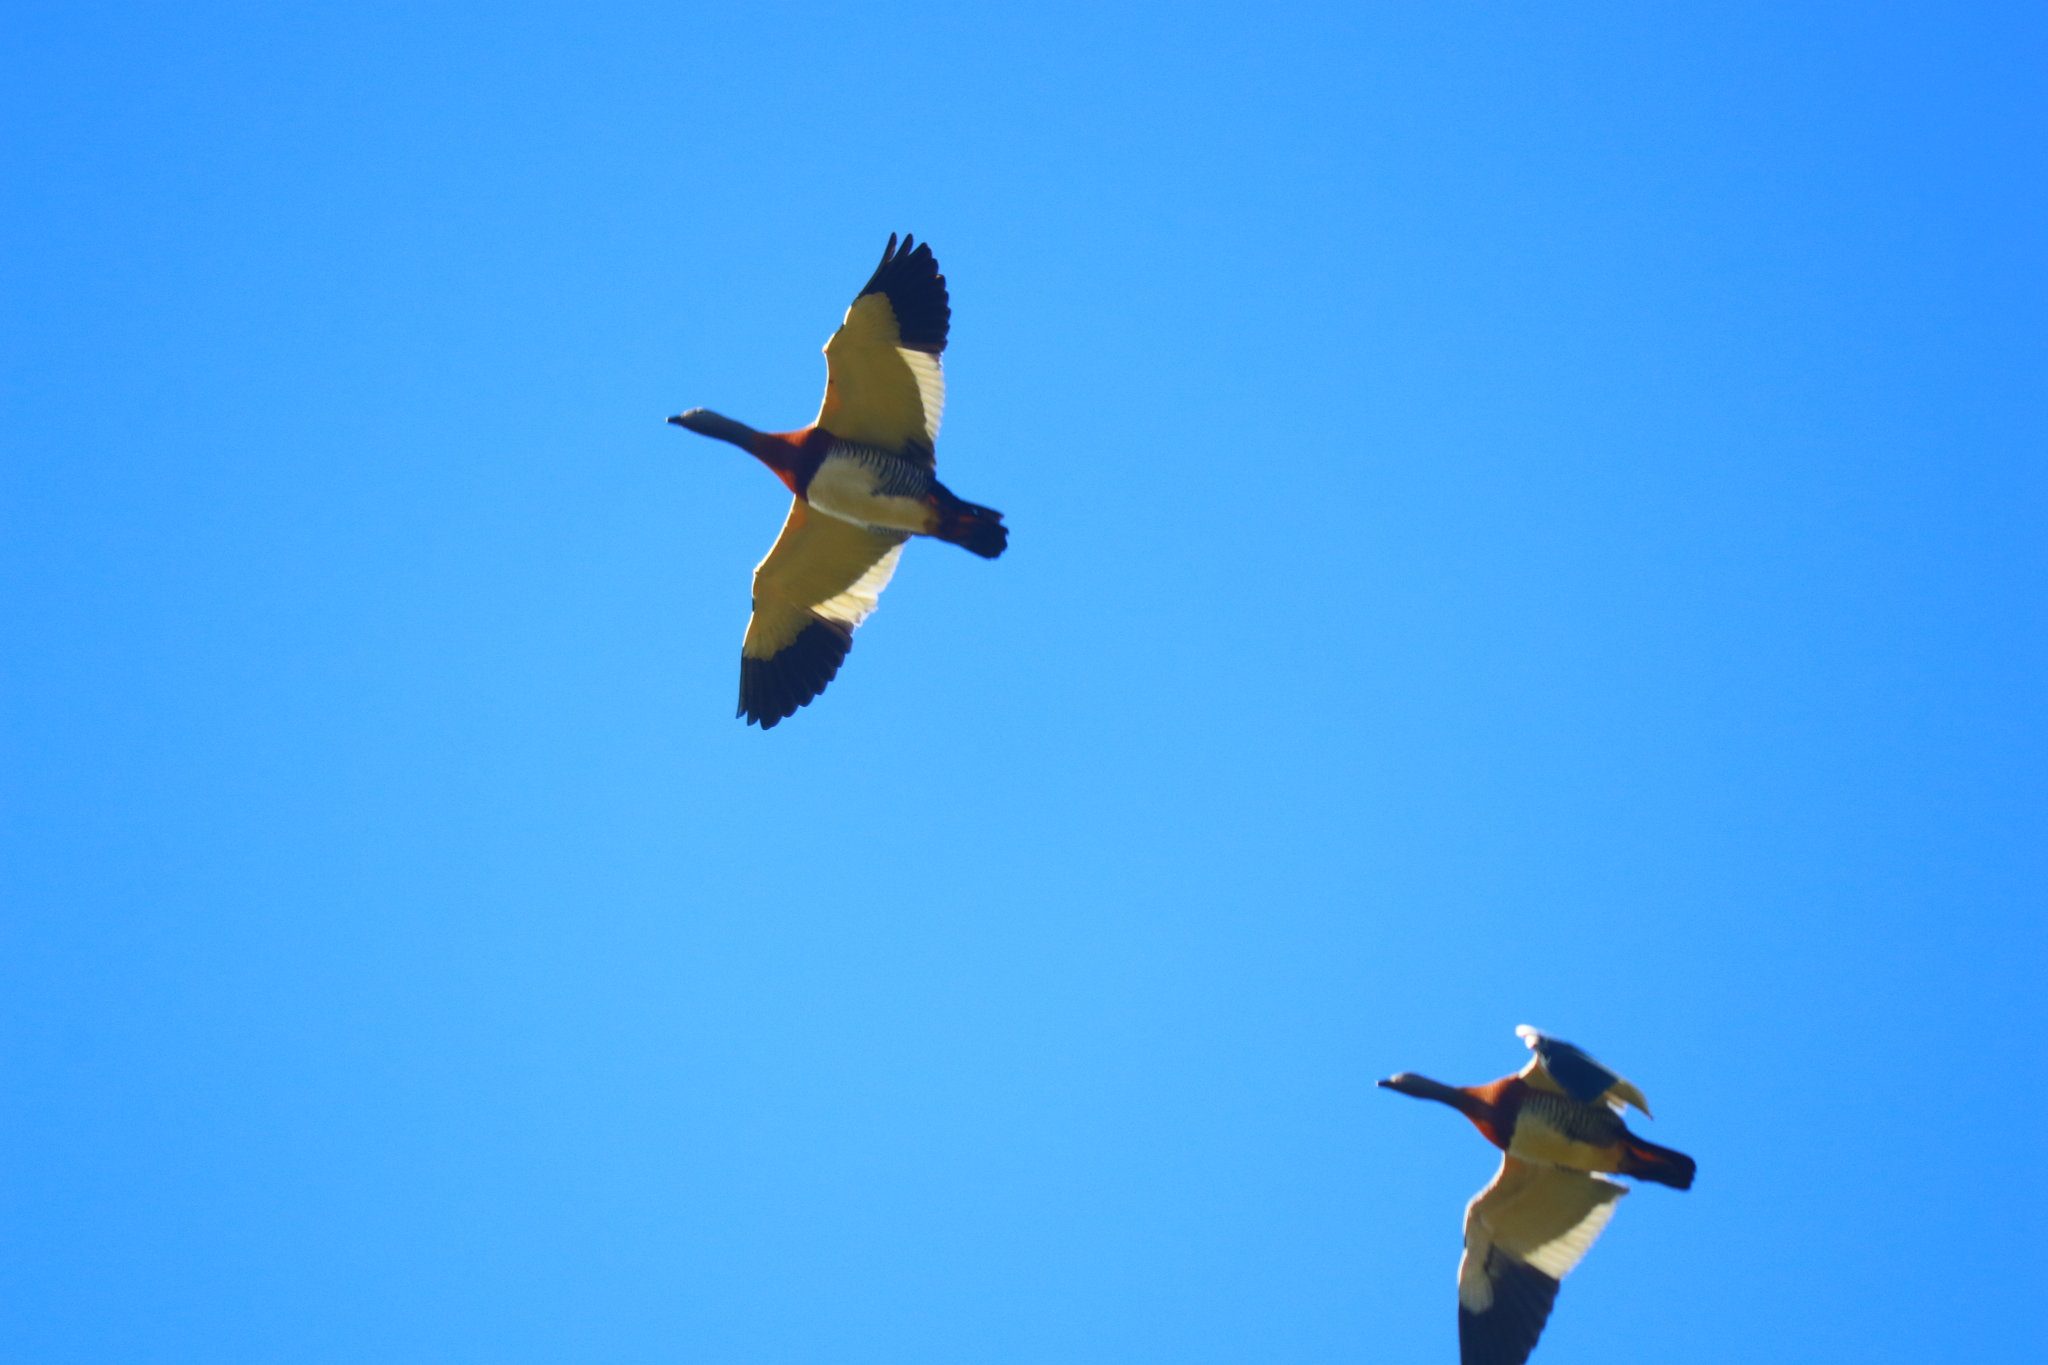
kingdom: Animalia
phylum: Chordata
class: Aves
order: Anseriformes
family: Anatidae
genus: Chloephaga
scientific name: Chloephaga poliocephala
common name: Ashy-headed goose
